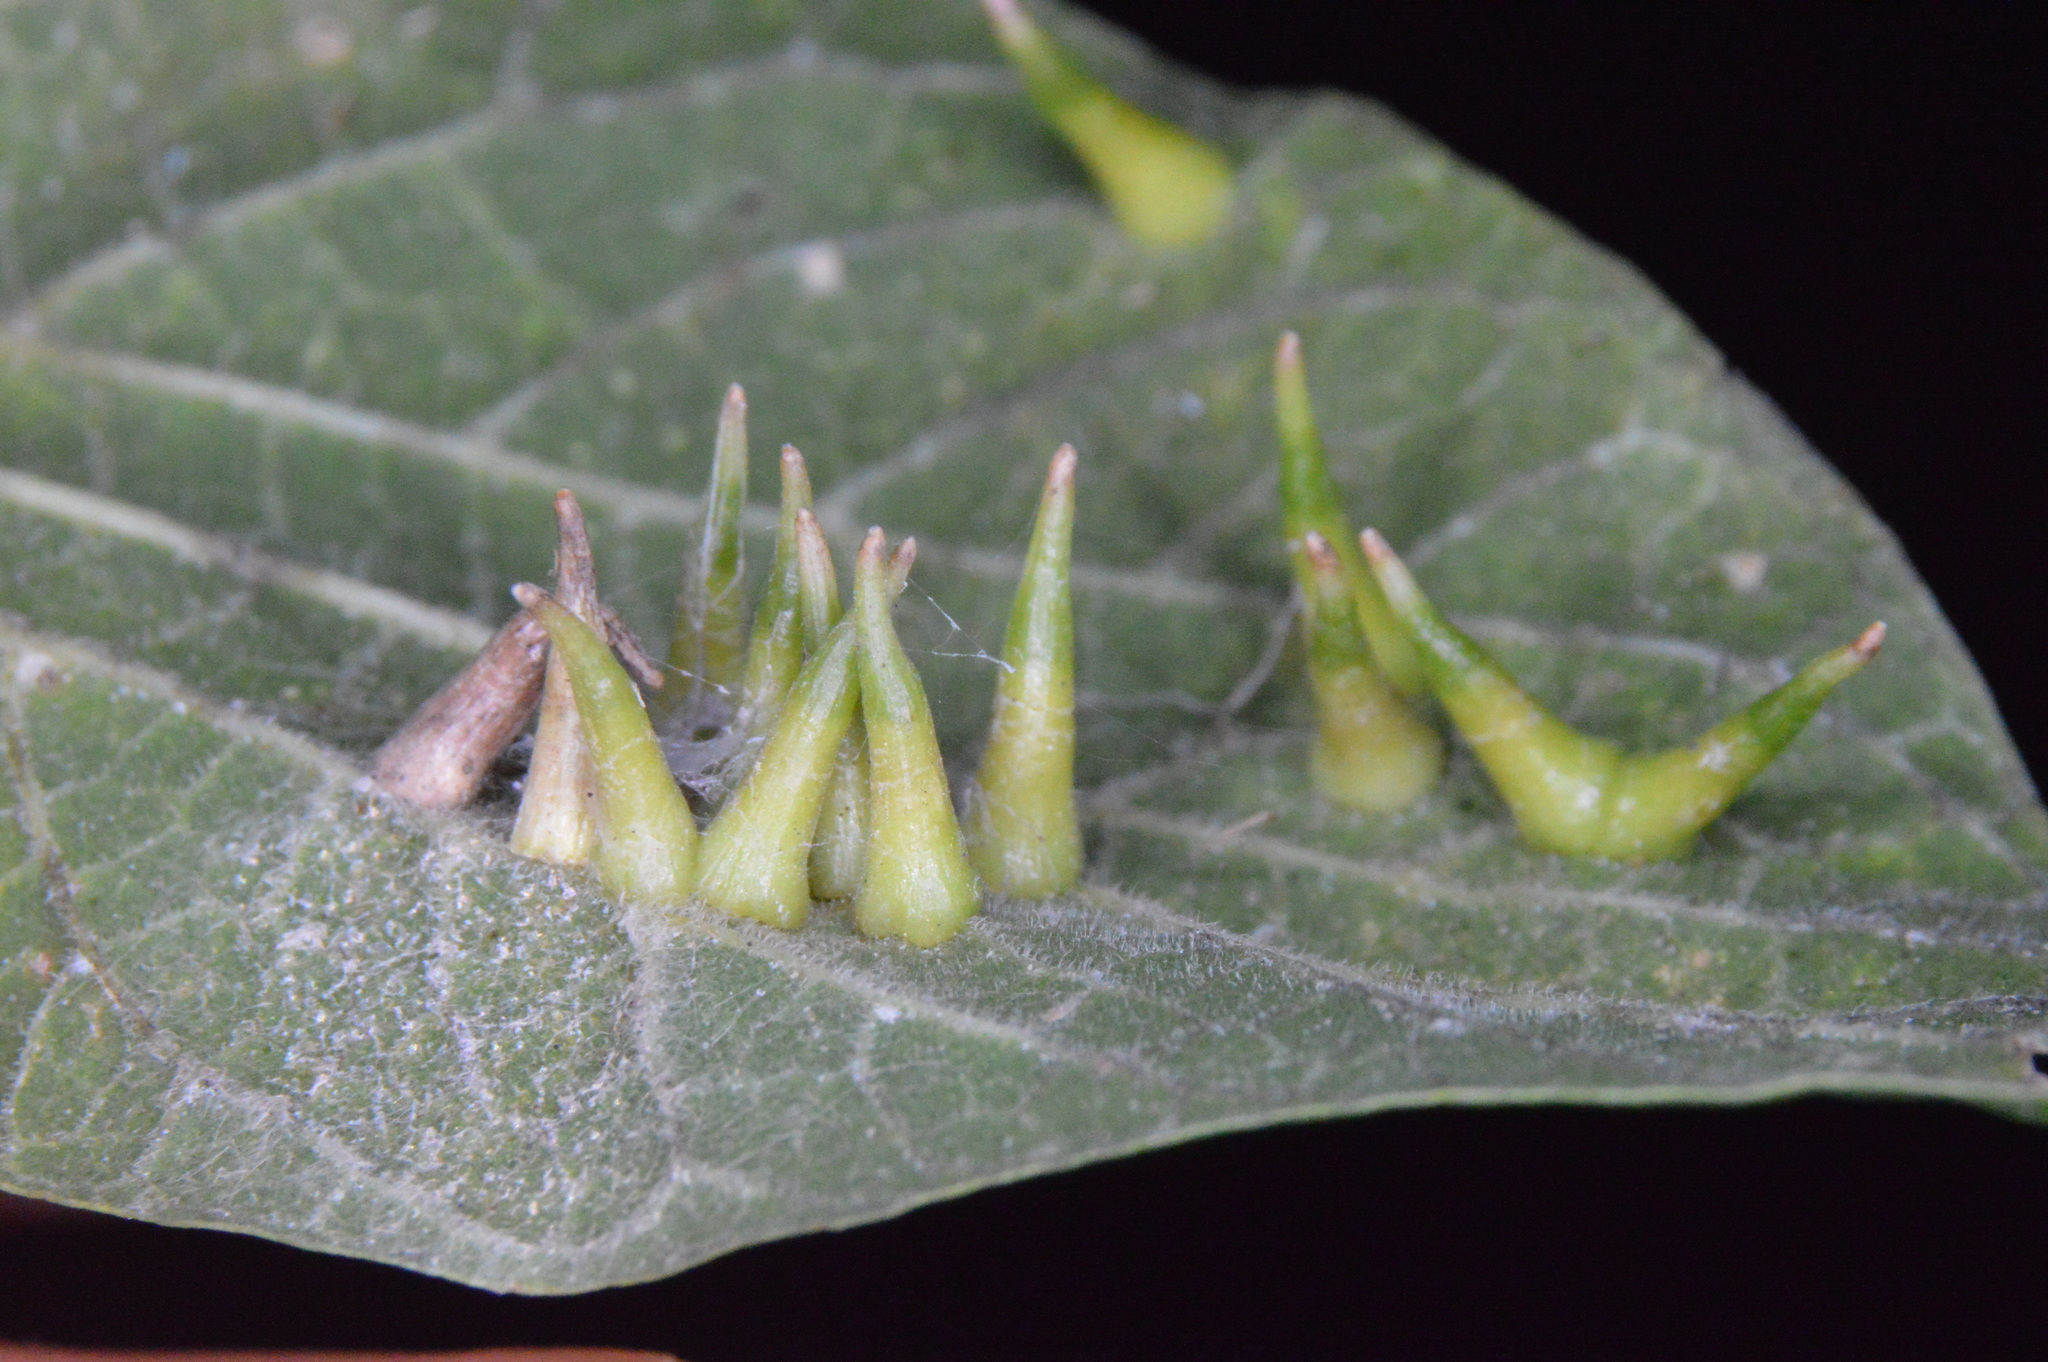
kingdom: Animalia
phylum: Arthropoda
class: Insecta
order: Diptera
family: Cecidomyiidae
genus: Celticecis
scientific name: Celticecis subulata
